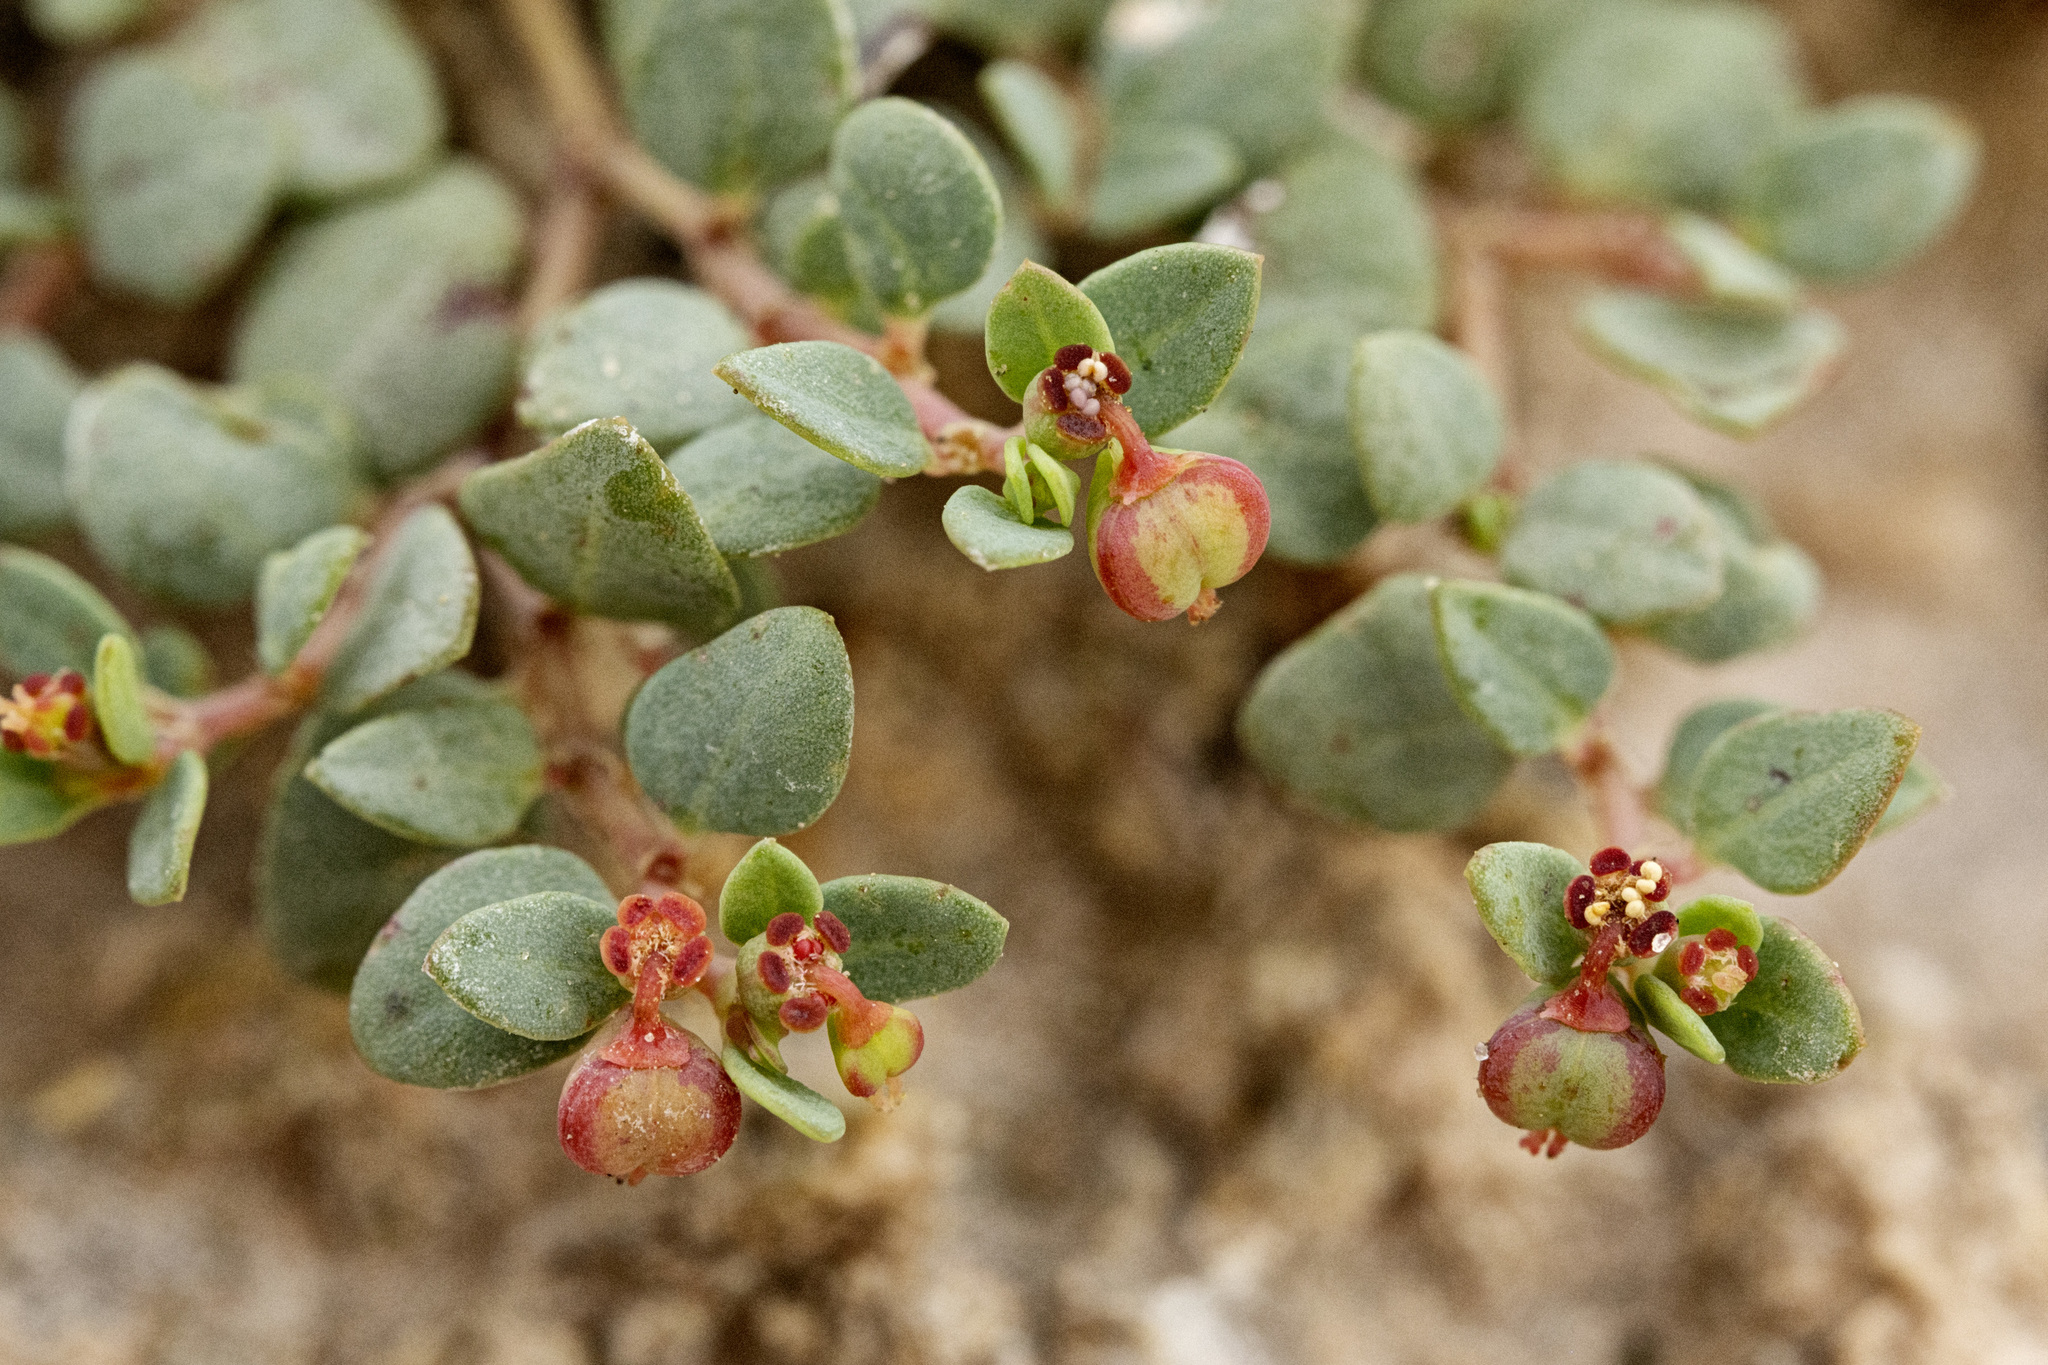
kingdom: Plantae
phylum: Tracheophyta
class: Magnoliopsida
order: Malpighiales
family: Euphorbiaceae
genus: Euphorbia
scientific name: Euphorbia fendleri
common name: Fendler's euphorbia
